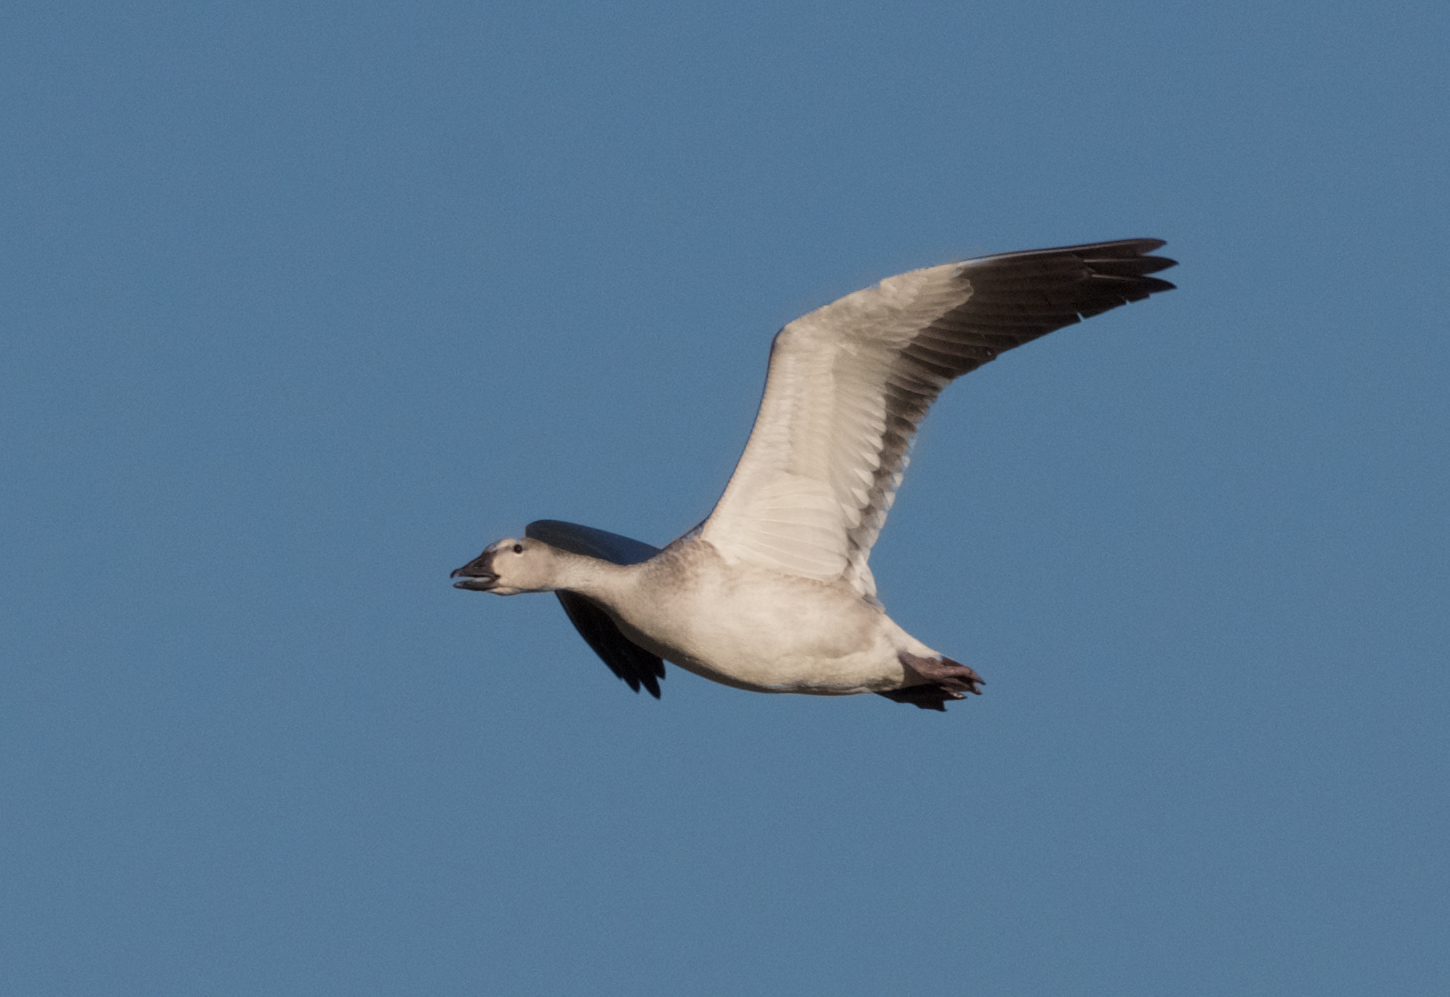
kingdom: Animalia
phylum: Chordata
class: Aves
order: Anseriformes
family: Anatidae
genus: Anser
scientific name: Anser caerulescens
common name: Snow goose
